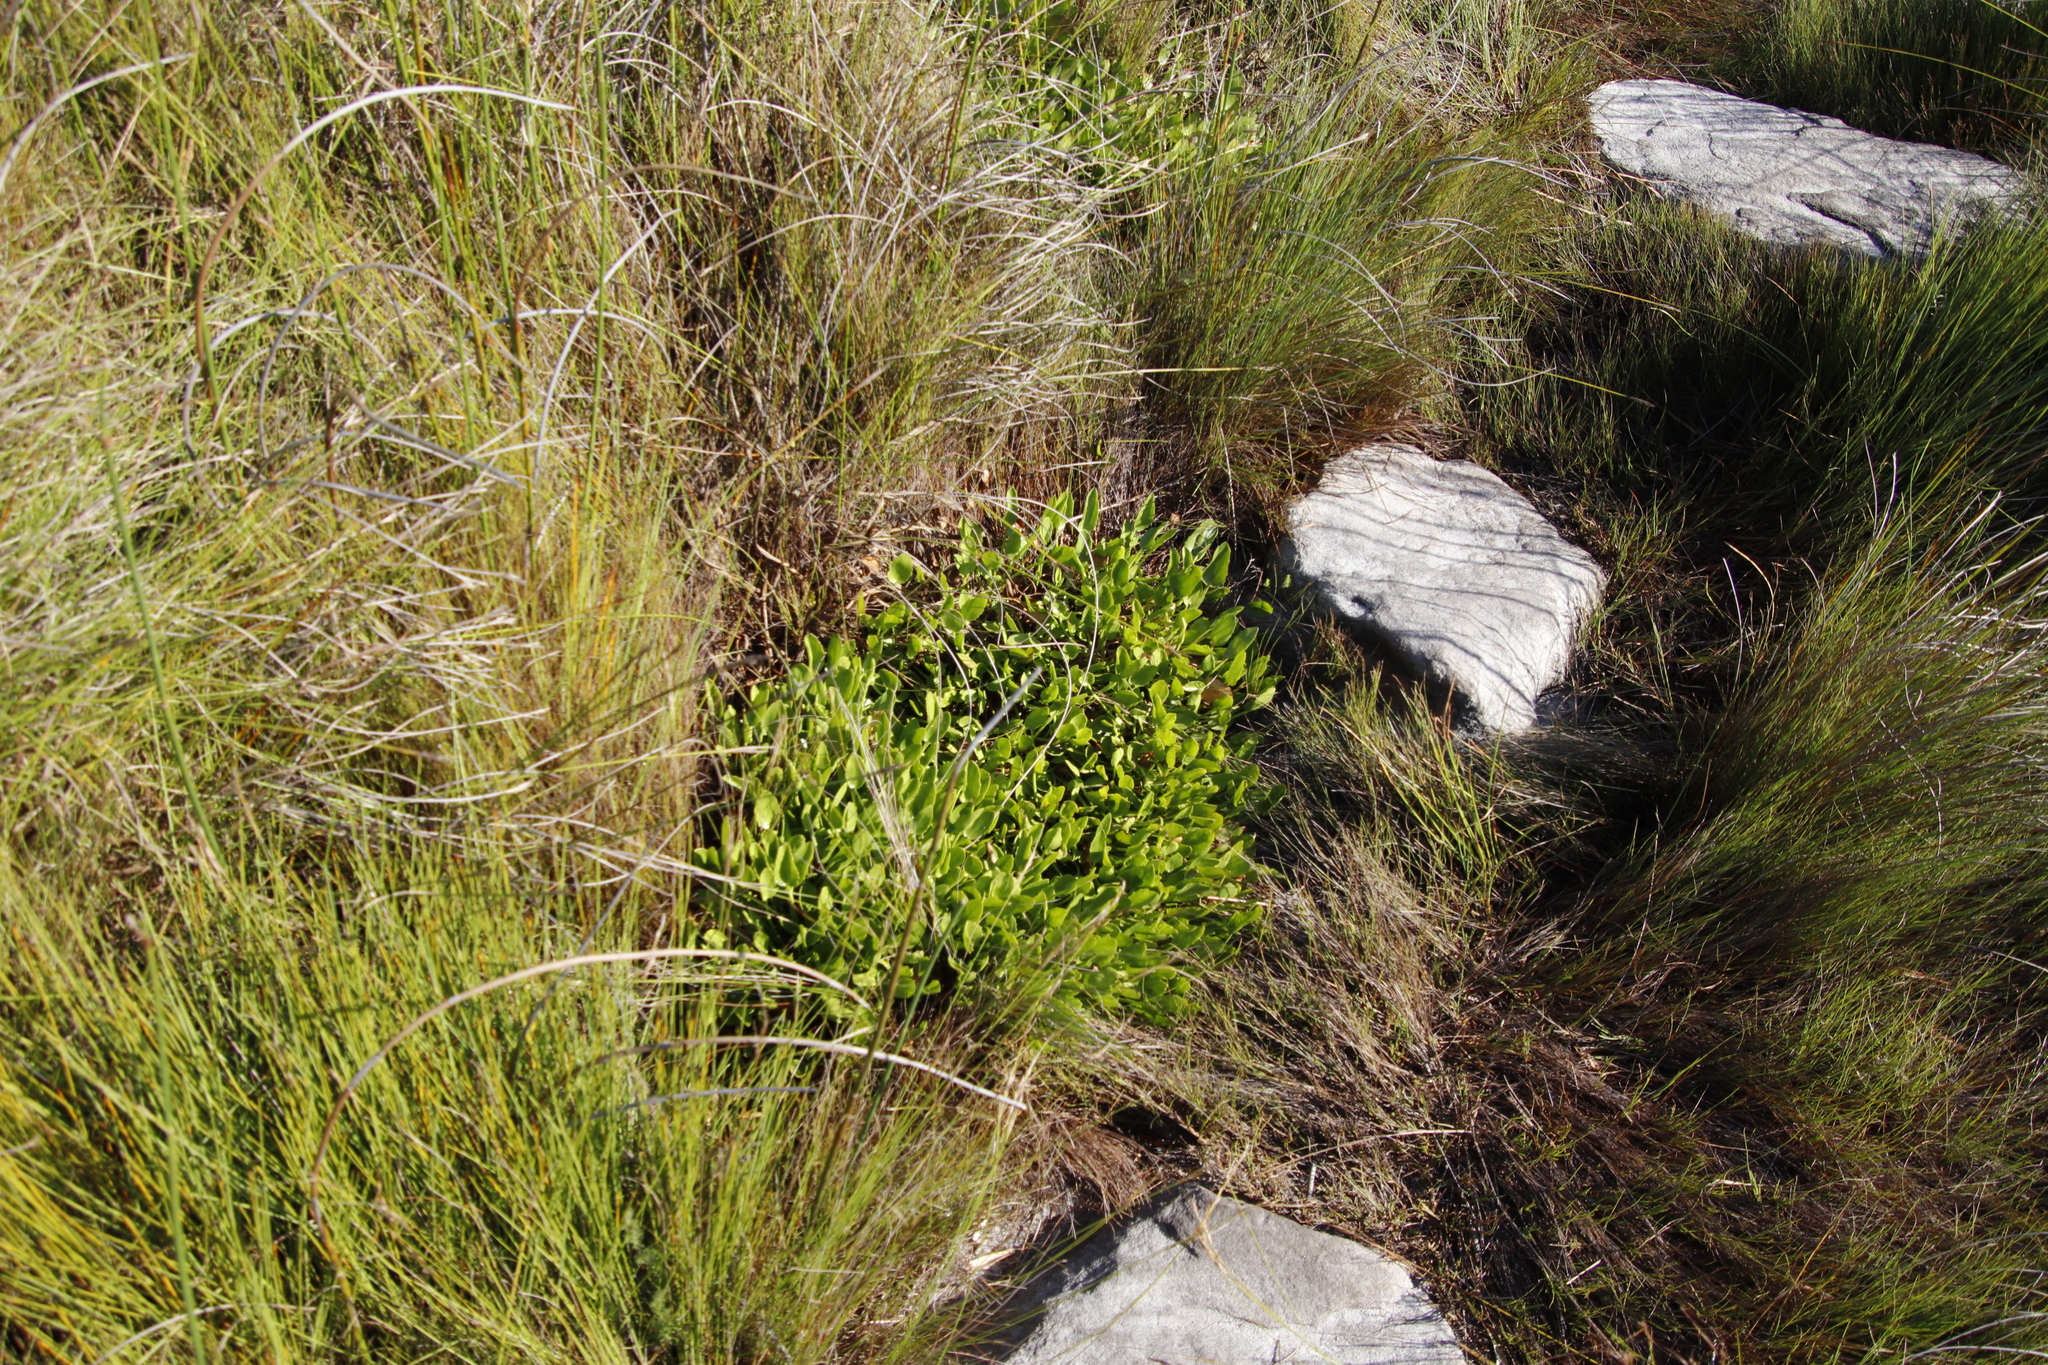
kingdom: Plantae
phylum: Tracheophyta
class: Magnoliopsida
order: Asterales
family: Menyanthaceae
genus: Villarsia
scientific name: Villarsia manningiana
